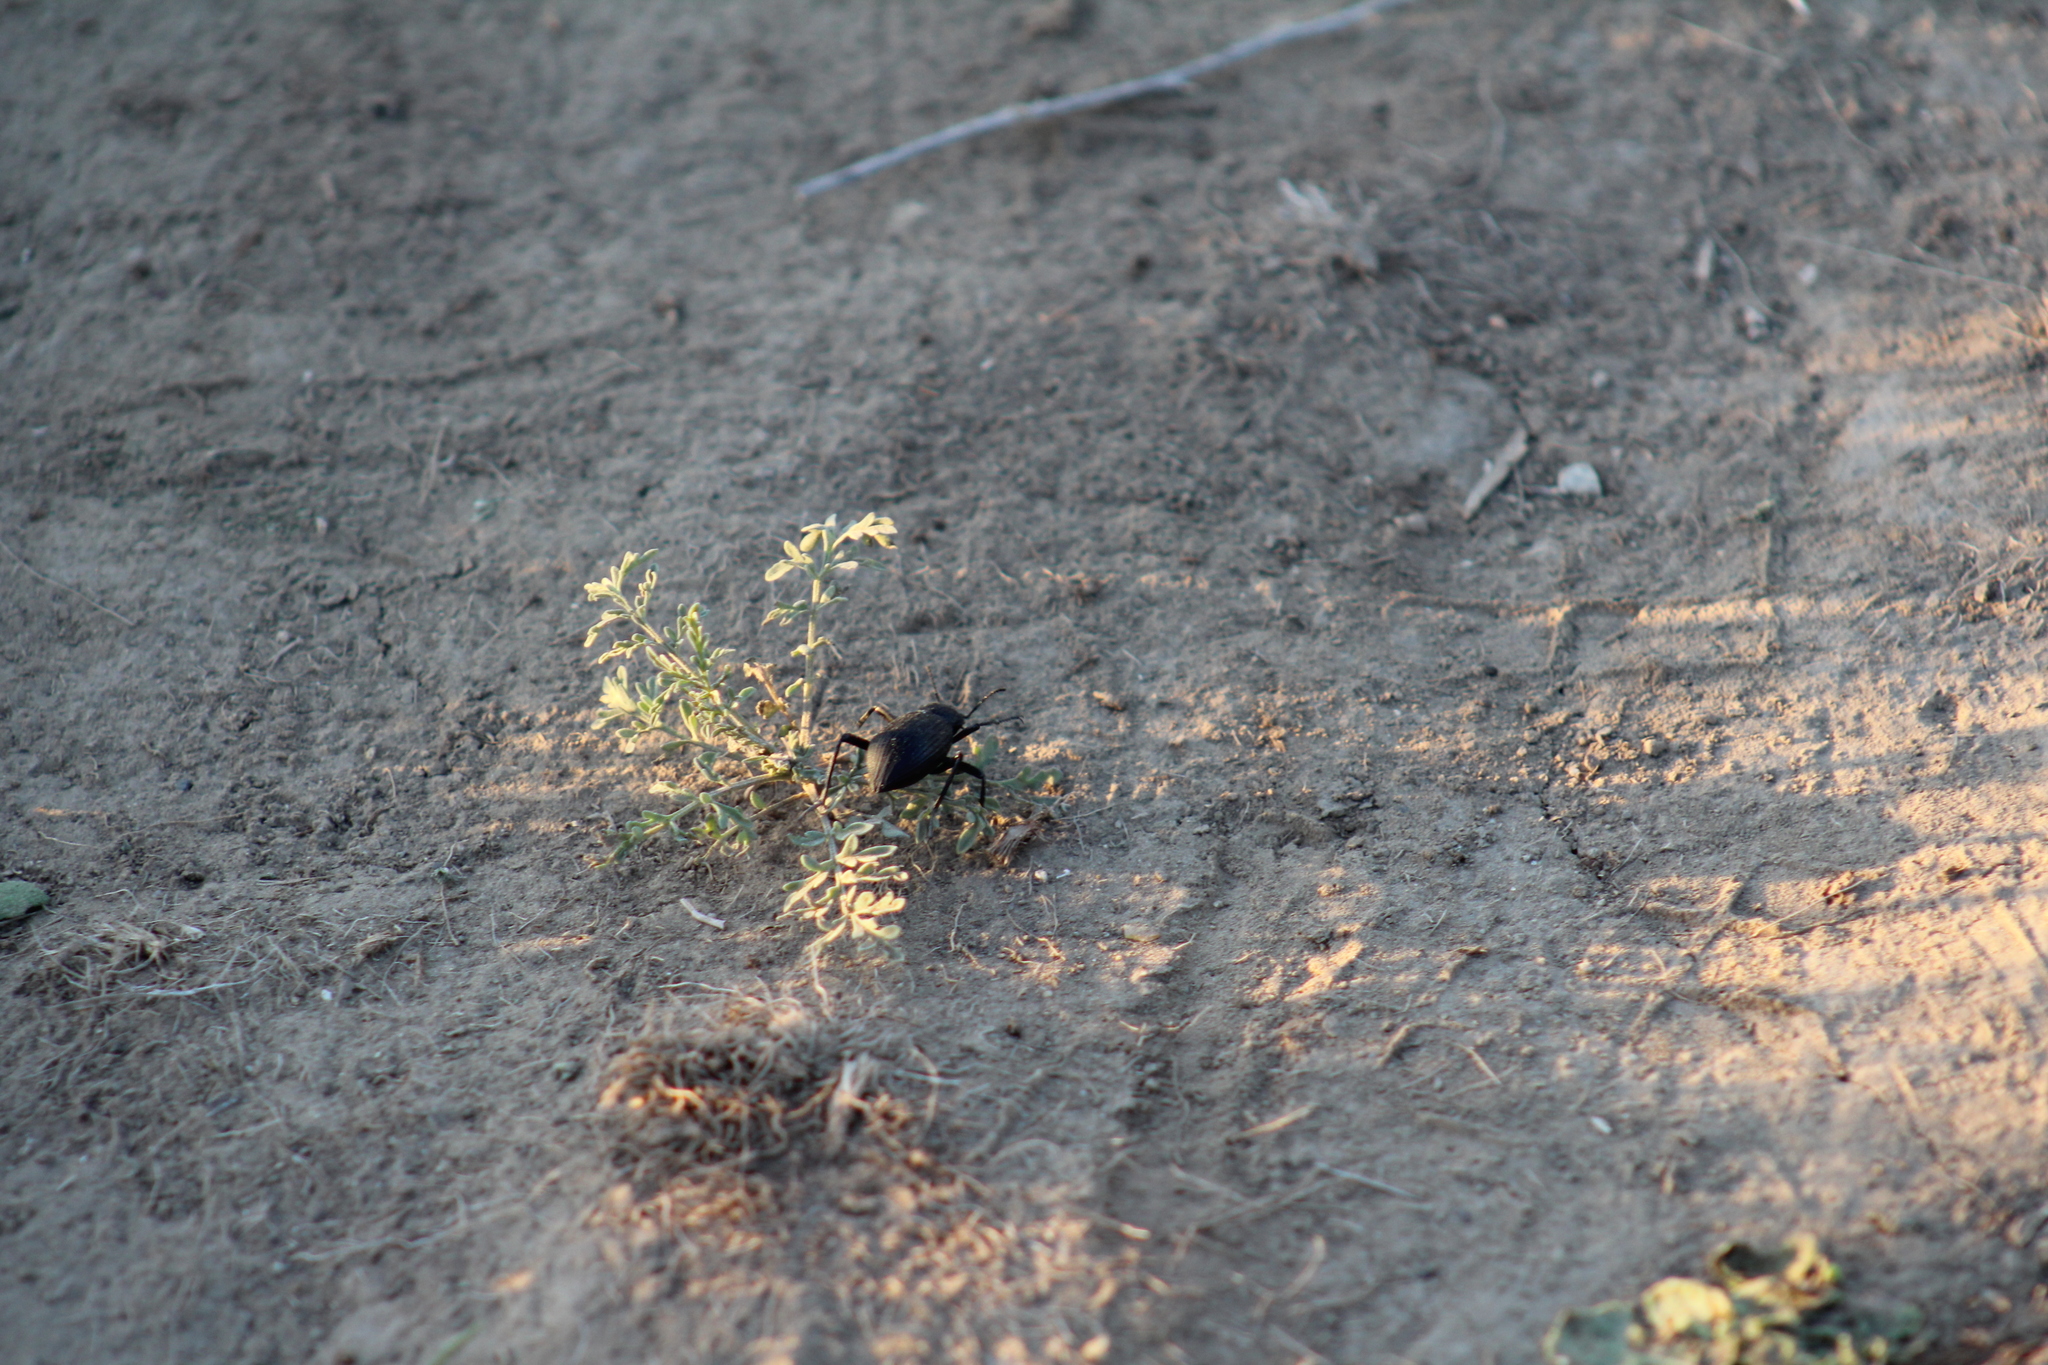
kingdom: Animalia
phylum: Arthropoda
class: Insecta
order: Coleoptera
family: Tenebrionidae
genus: Eleodes
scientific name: Eleodes hispilabris
